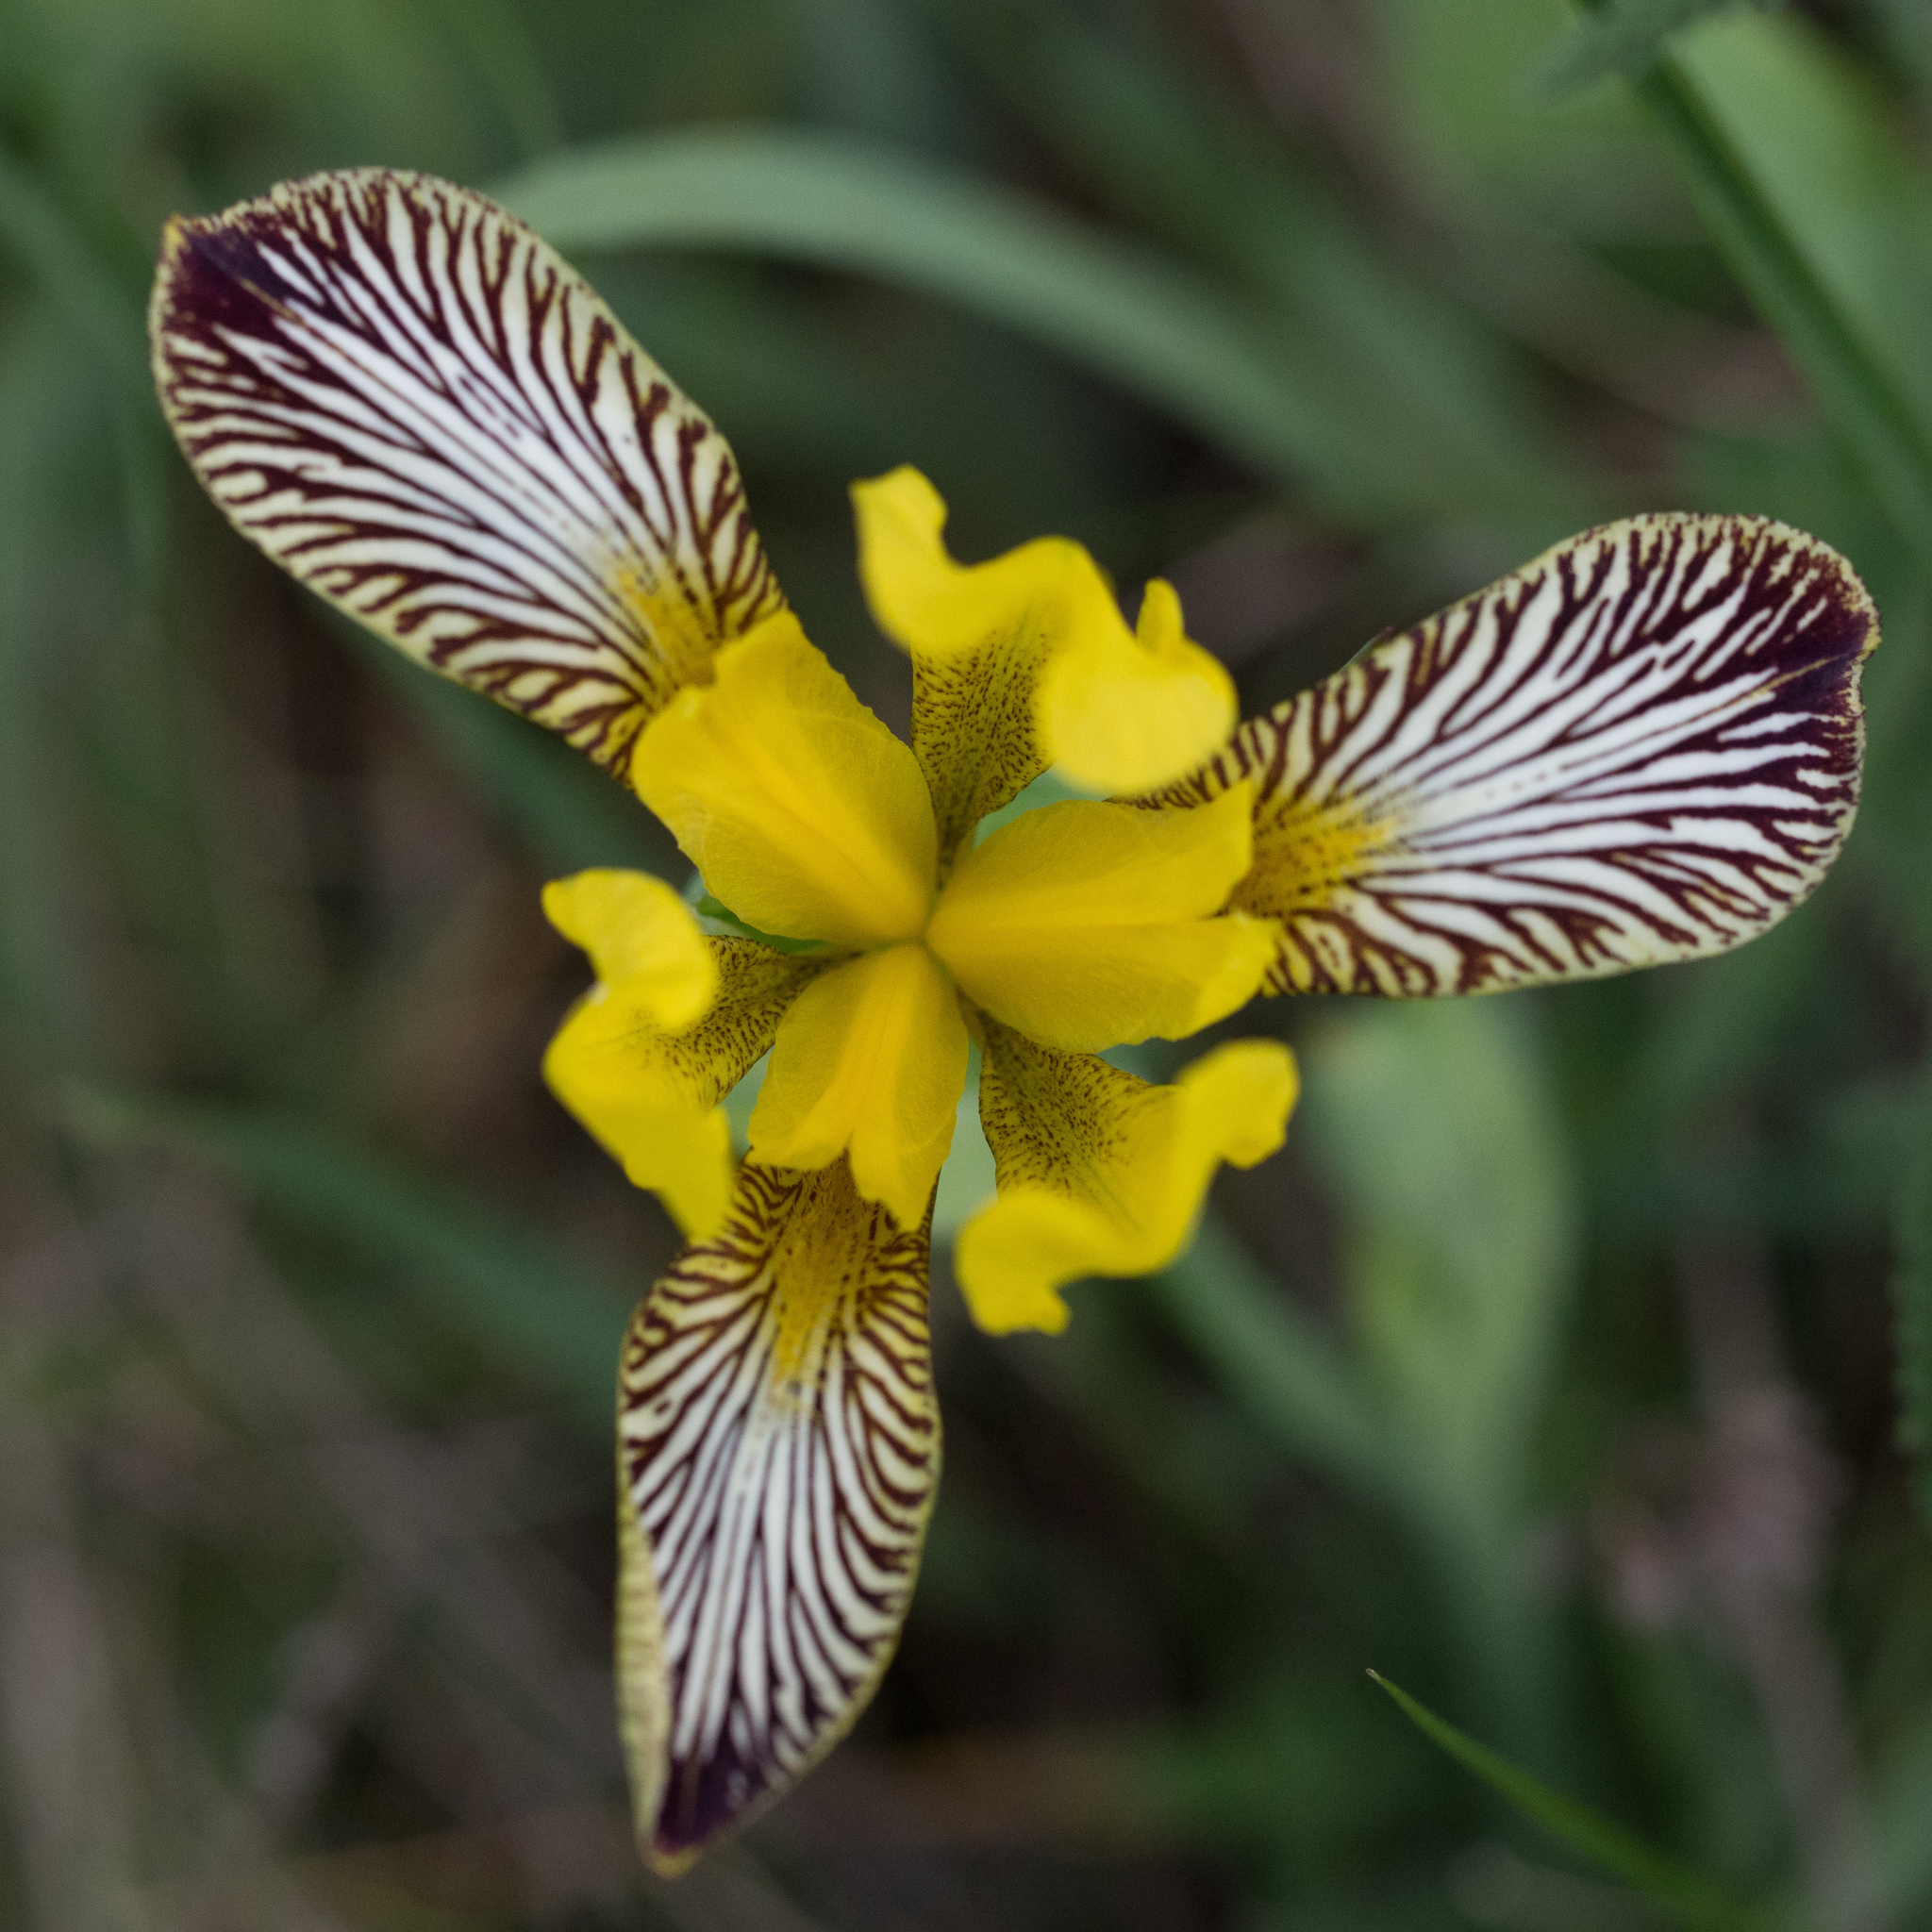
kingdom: Plantae
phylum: Tracheophyta
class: Liliopsida
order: Asparagales
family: Iridaceae
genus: Iris
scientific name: Iris variegata
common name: Hungarian iris
